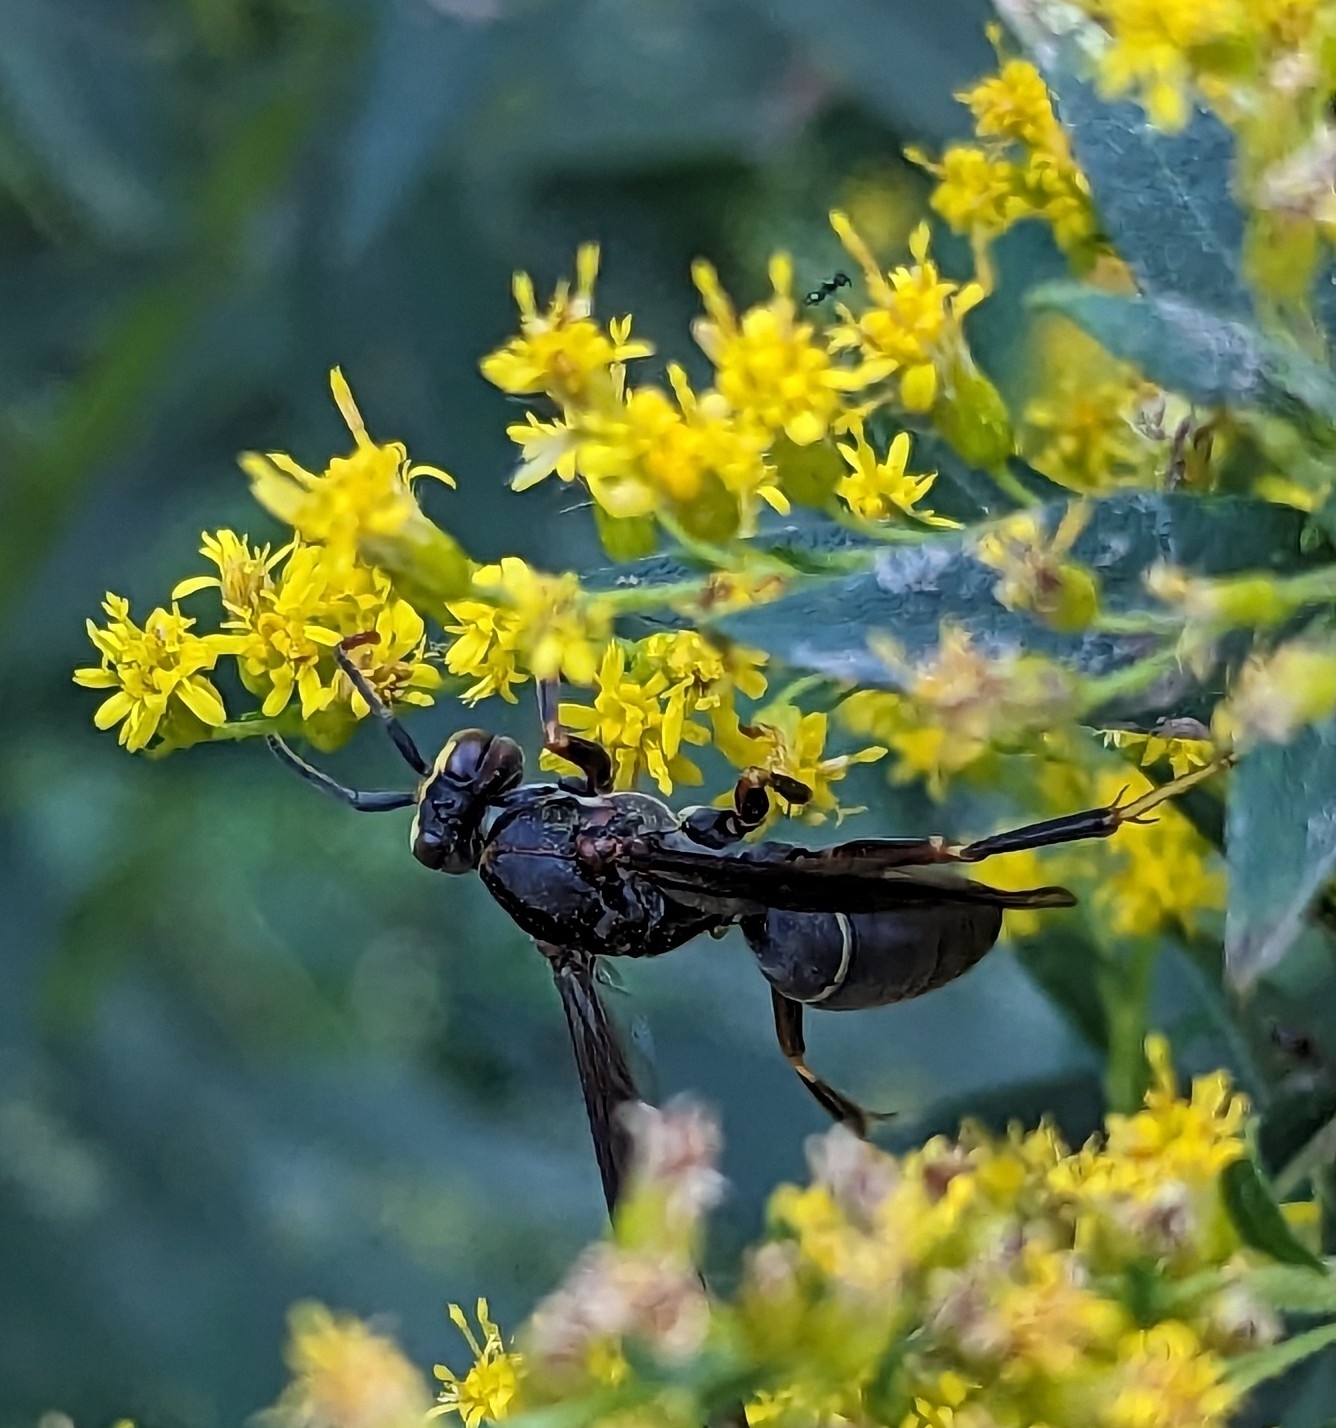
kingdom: Animalia
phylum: Arthropoda
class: Insecta
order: Hymenoptera
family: Eumenidae
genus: Polistes
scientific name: Polistes parametricus
